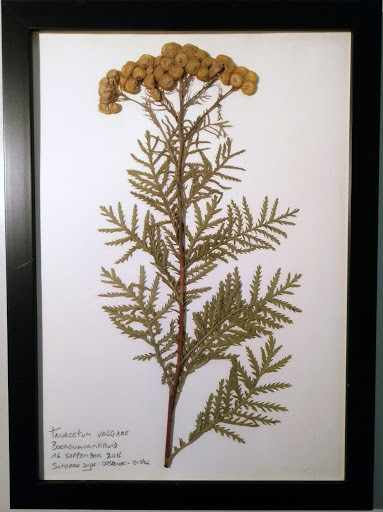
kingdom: Plantae
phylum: Tracheophyta
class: Magnoliopsida
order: Asterales
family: Asteraceae
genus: Tanacetum
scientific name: Tanacetum vulgare
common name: Common tansy
